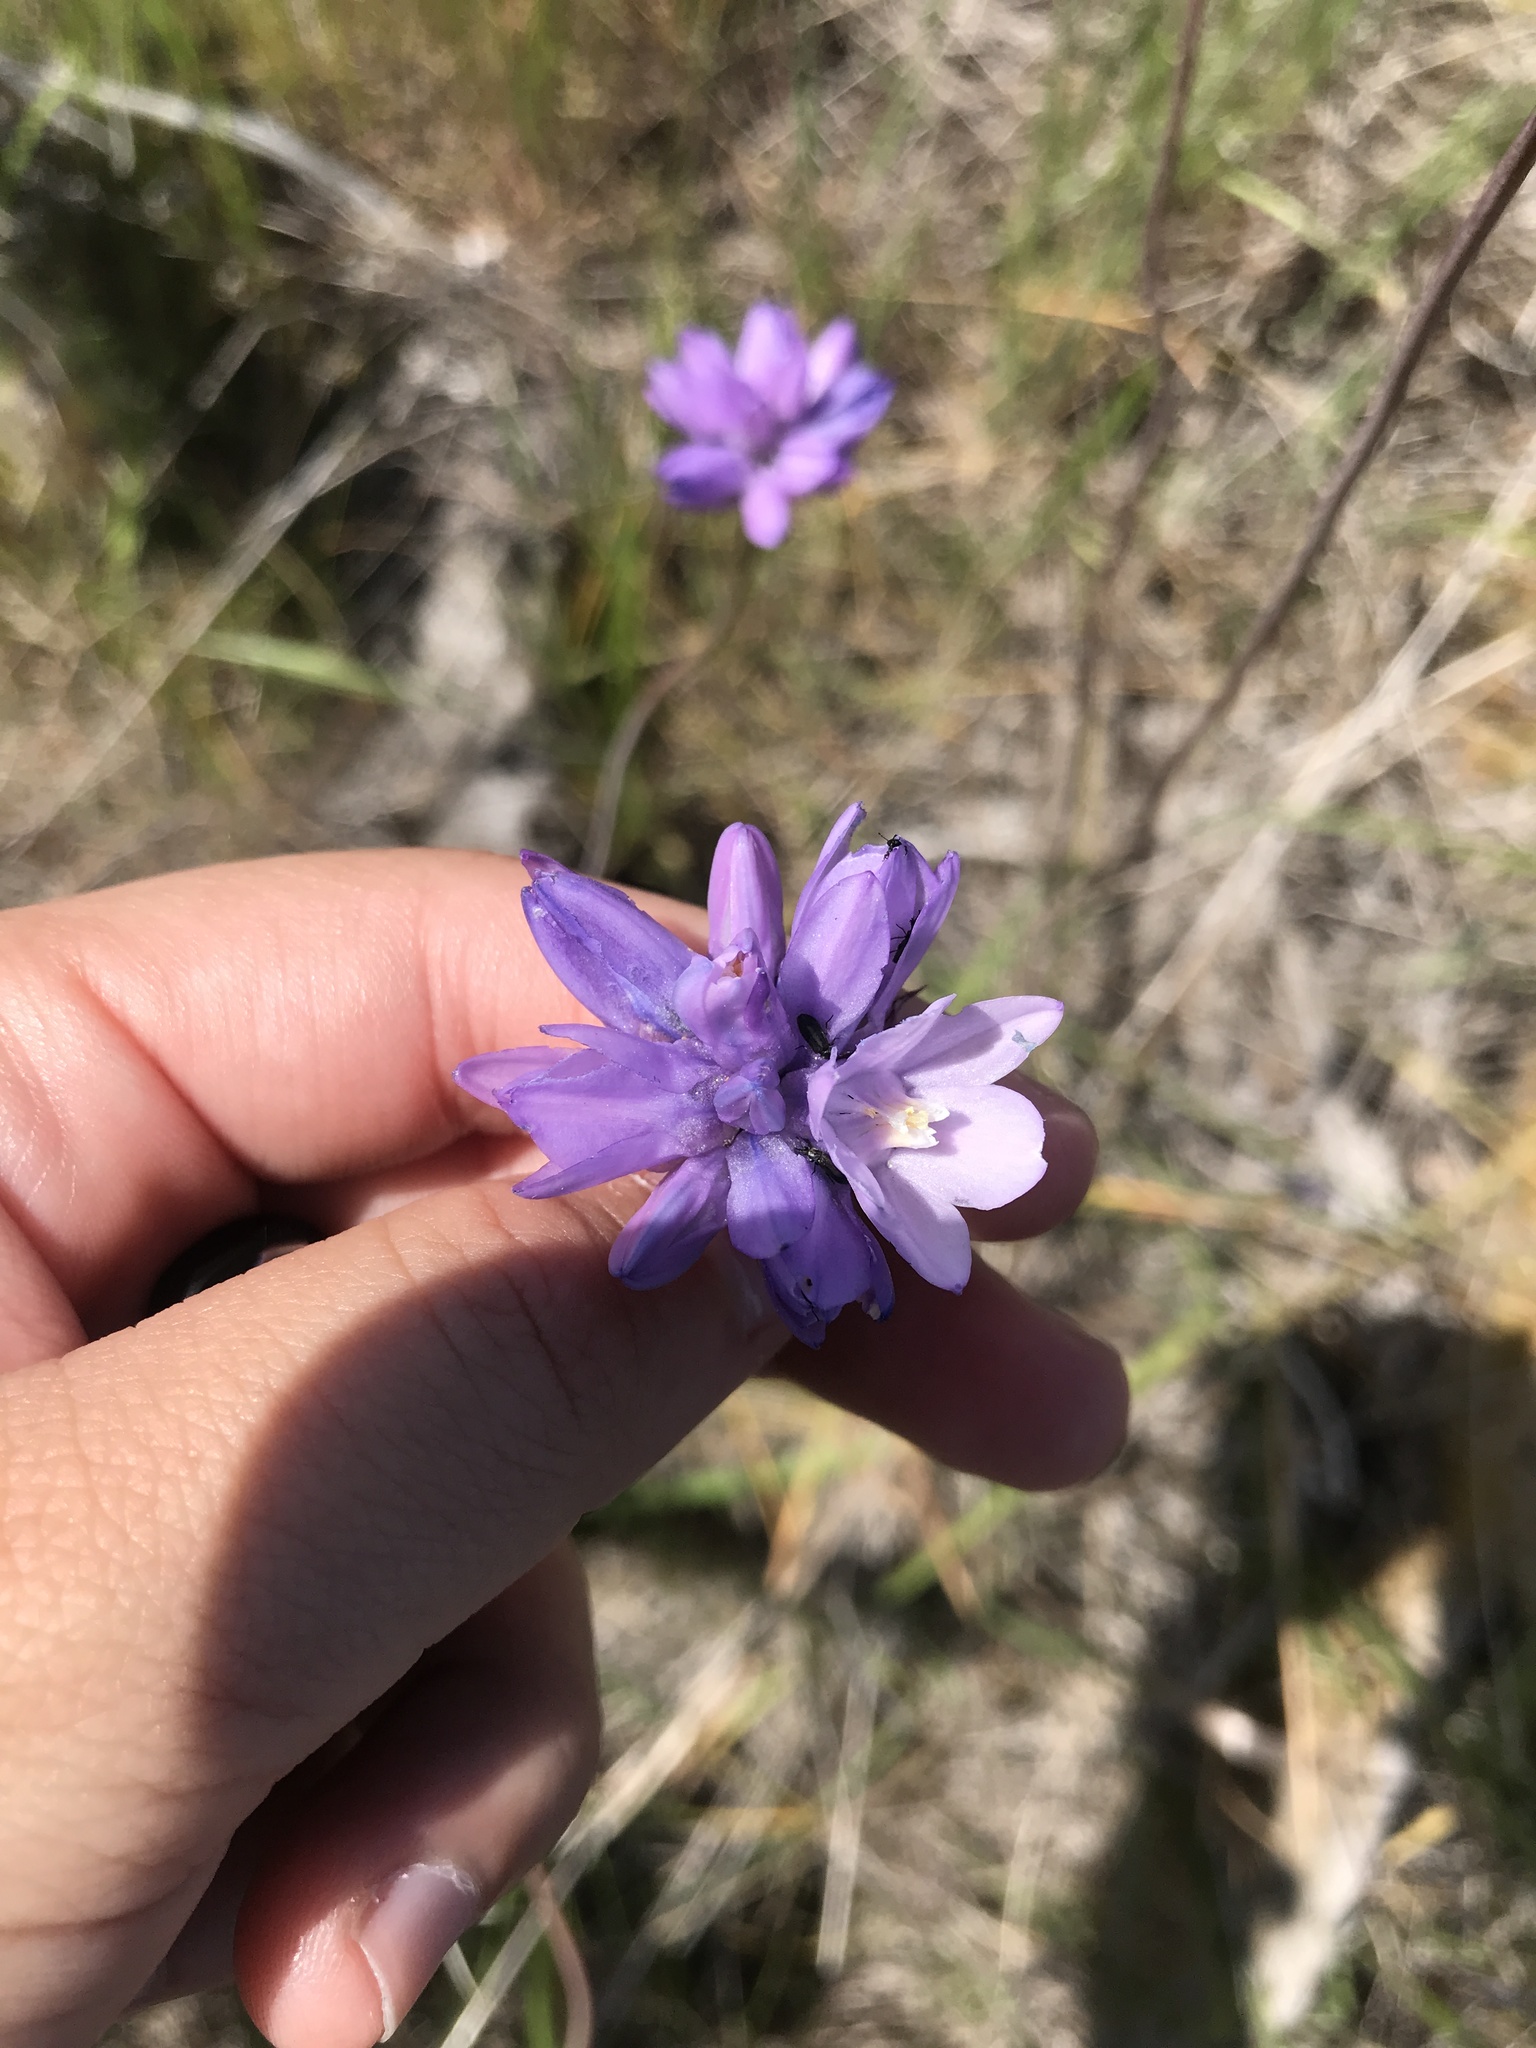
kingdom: Plantae
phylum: Tracheophyta
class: Liliopsida
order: Asparagales
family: Asparagaceae
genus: Dipterostemon
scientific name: Dipterostemon capitatus
